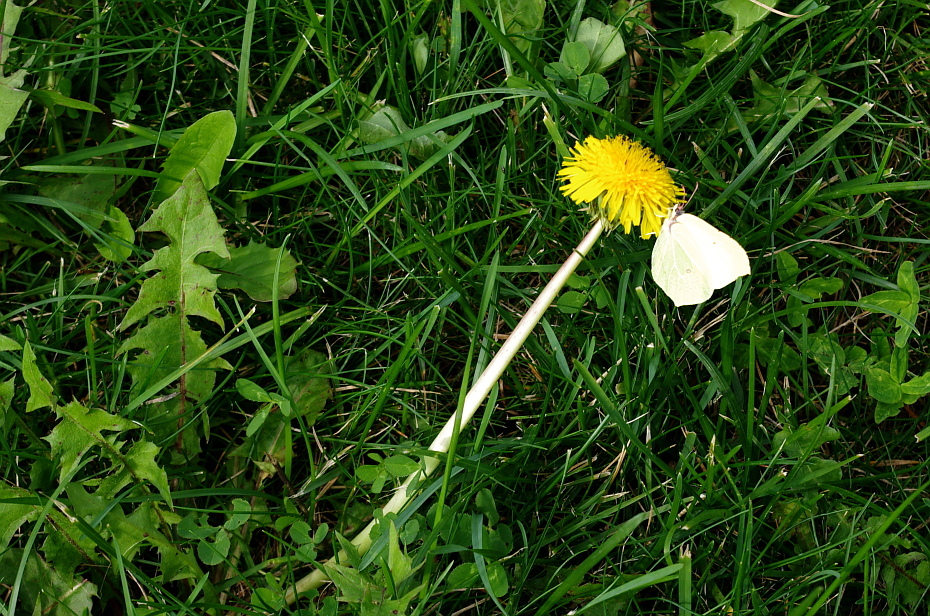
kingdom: Plantae
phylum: Tracheophyta
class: Magnoliopsida
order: Asterales
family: Asteraceae
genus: Taraxacum
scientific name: Taraxacum officinale
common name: Common dandelion
